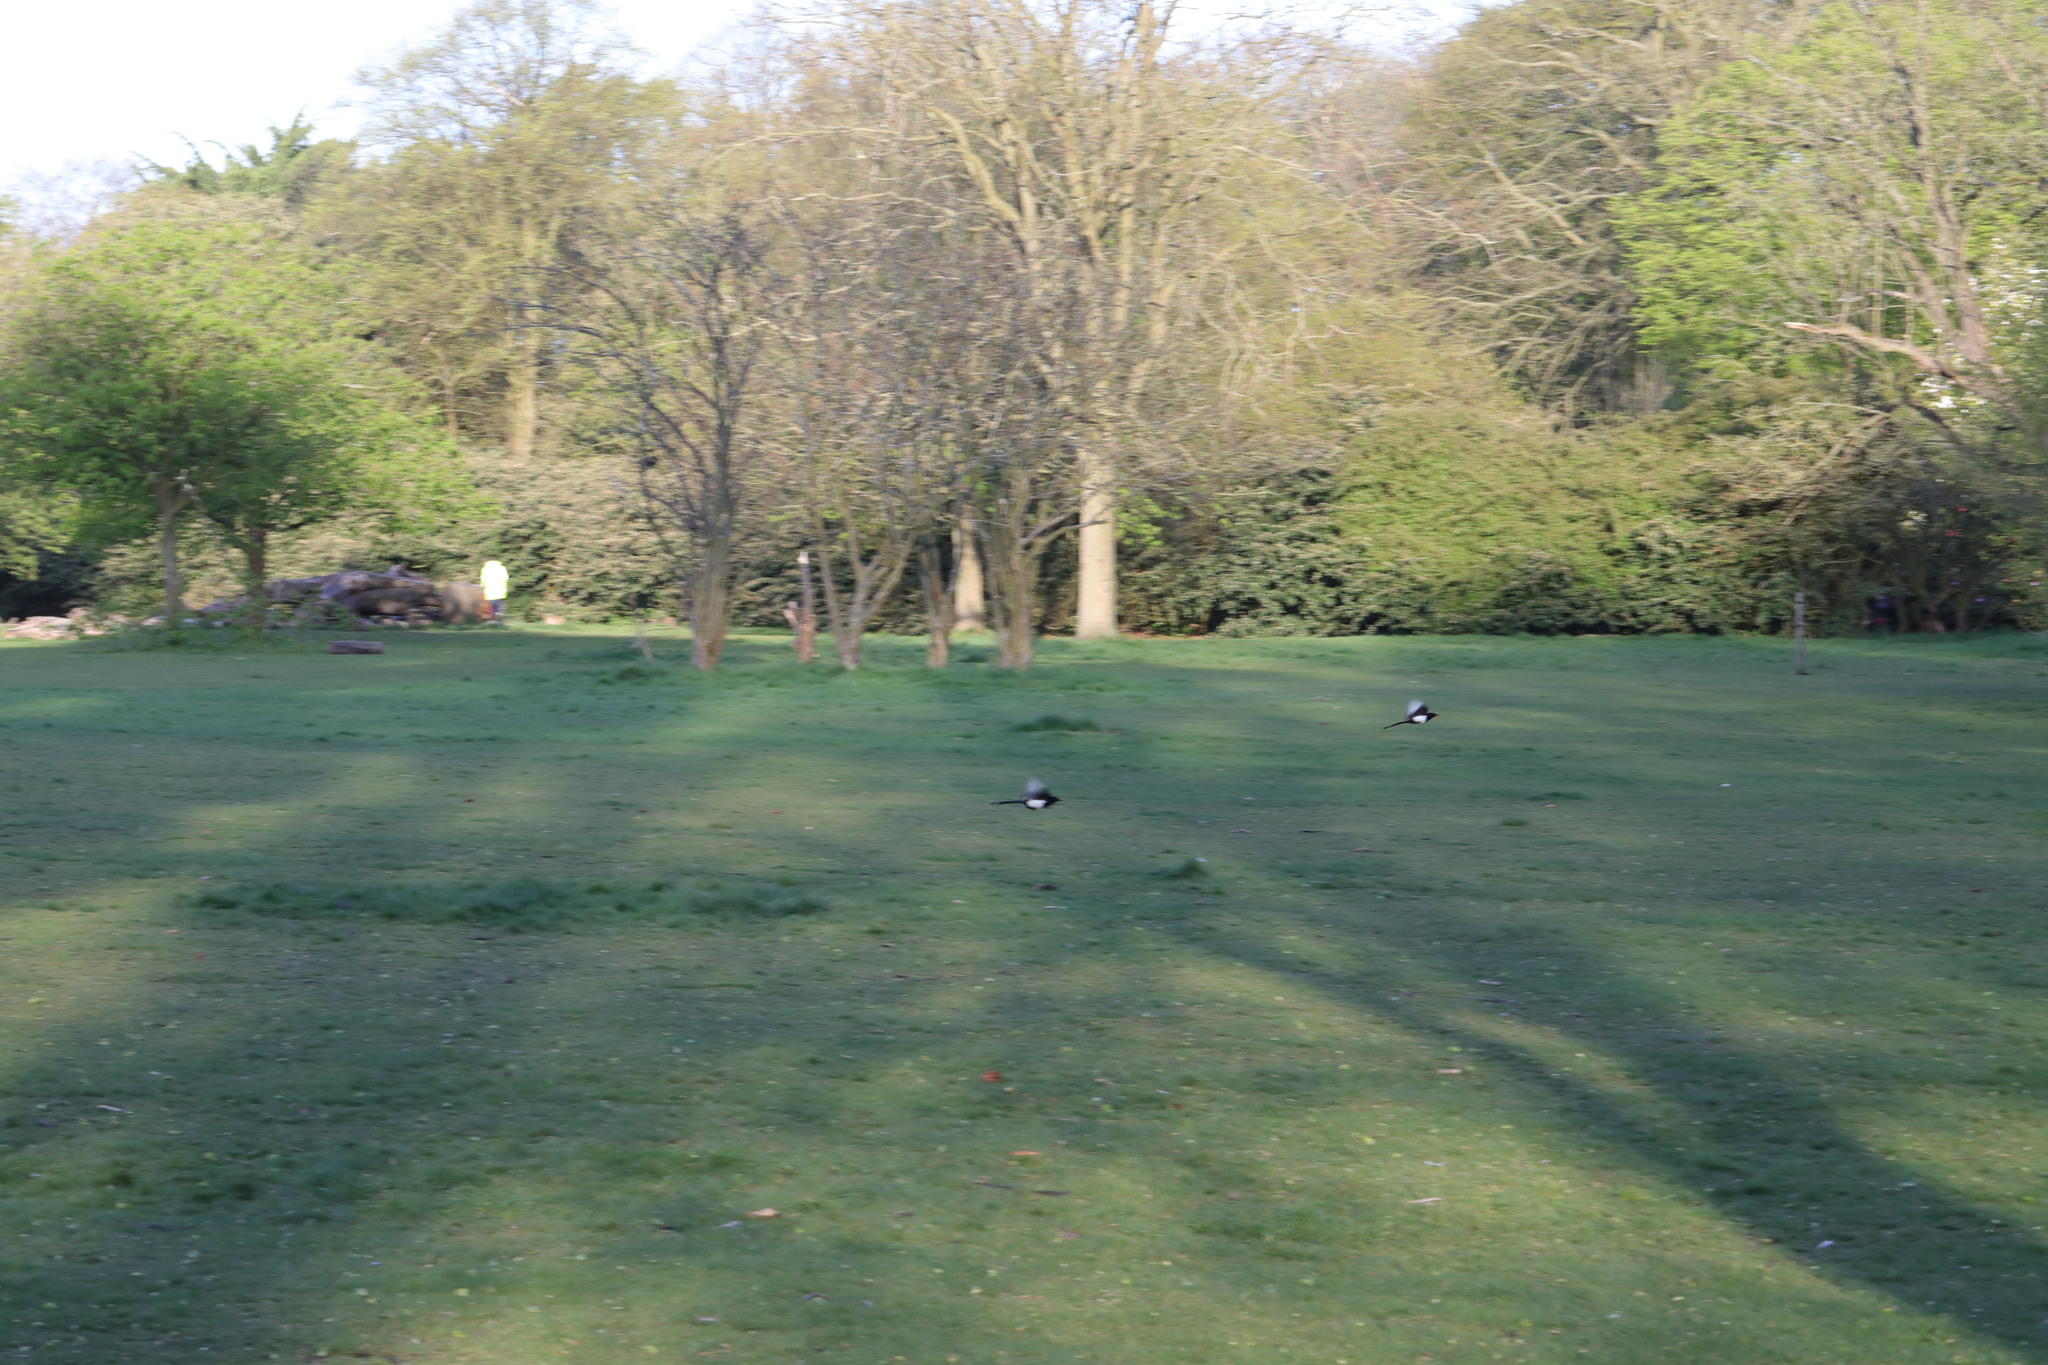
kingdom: Animalia
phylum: Chordata
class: Aves
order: Passeriformes
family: Corvidae
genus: Pica
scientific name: Pica pica
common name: Eurasian magpie
